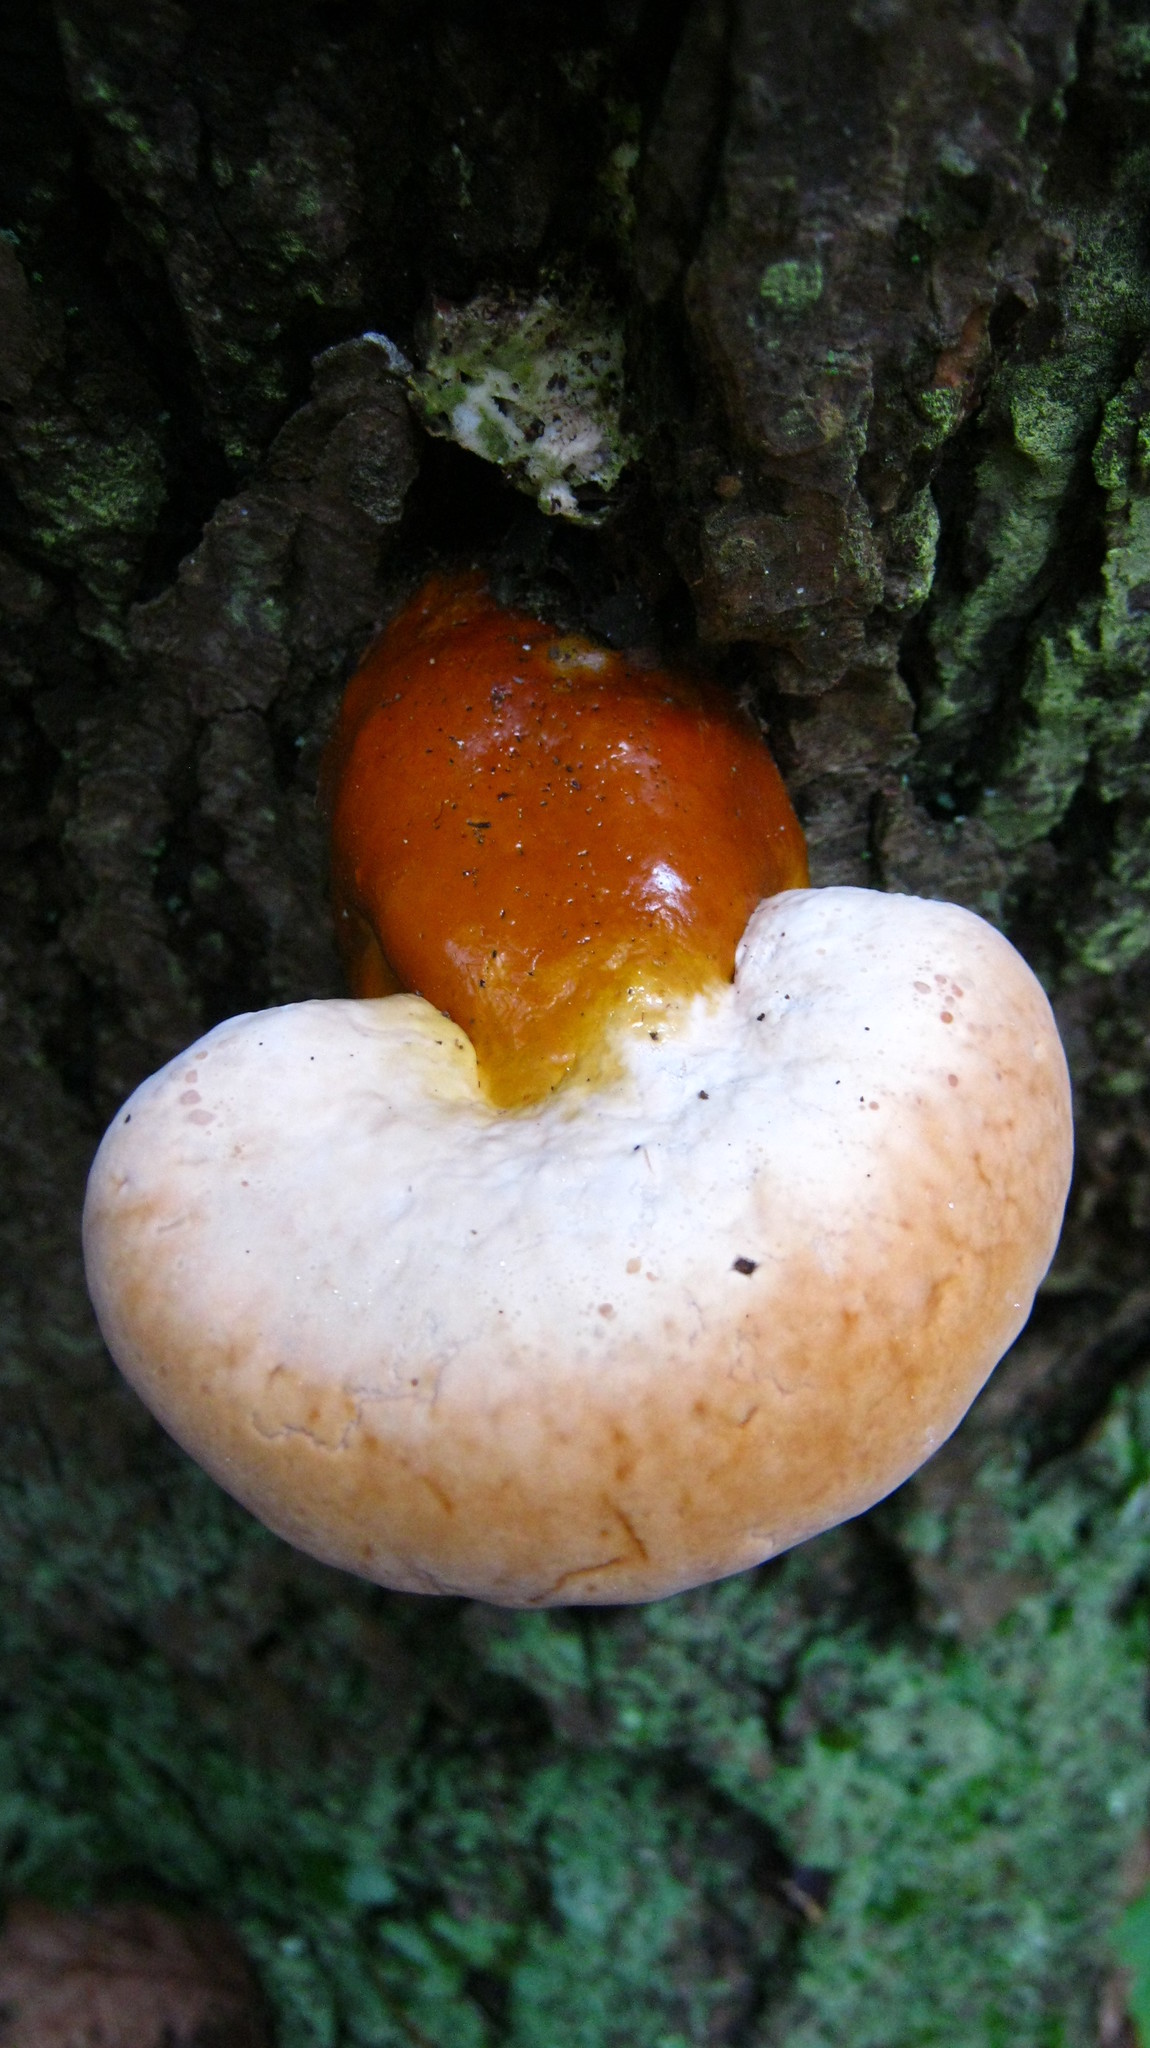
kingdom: Fungi
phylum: Basidiomycota
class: Agaricomycetes
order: Polyporales
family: Polyporaceae
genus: Ganoderma
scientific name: Ganoderma tsugae
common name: Hemlock varnish shelf
